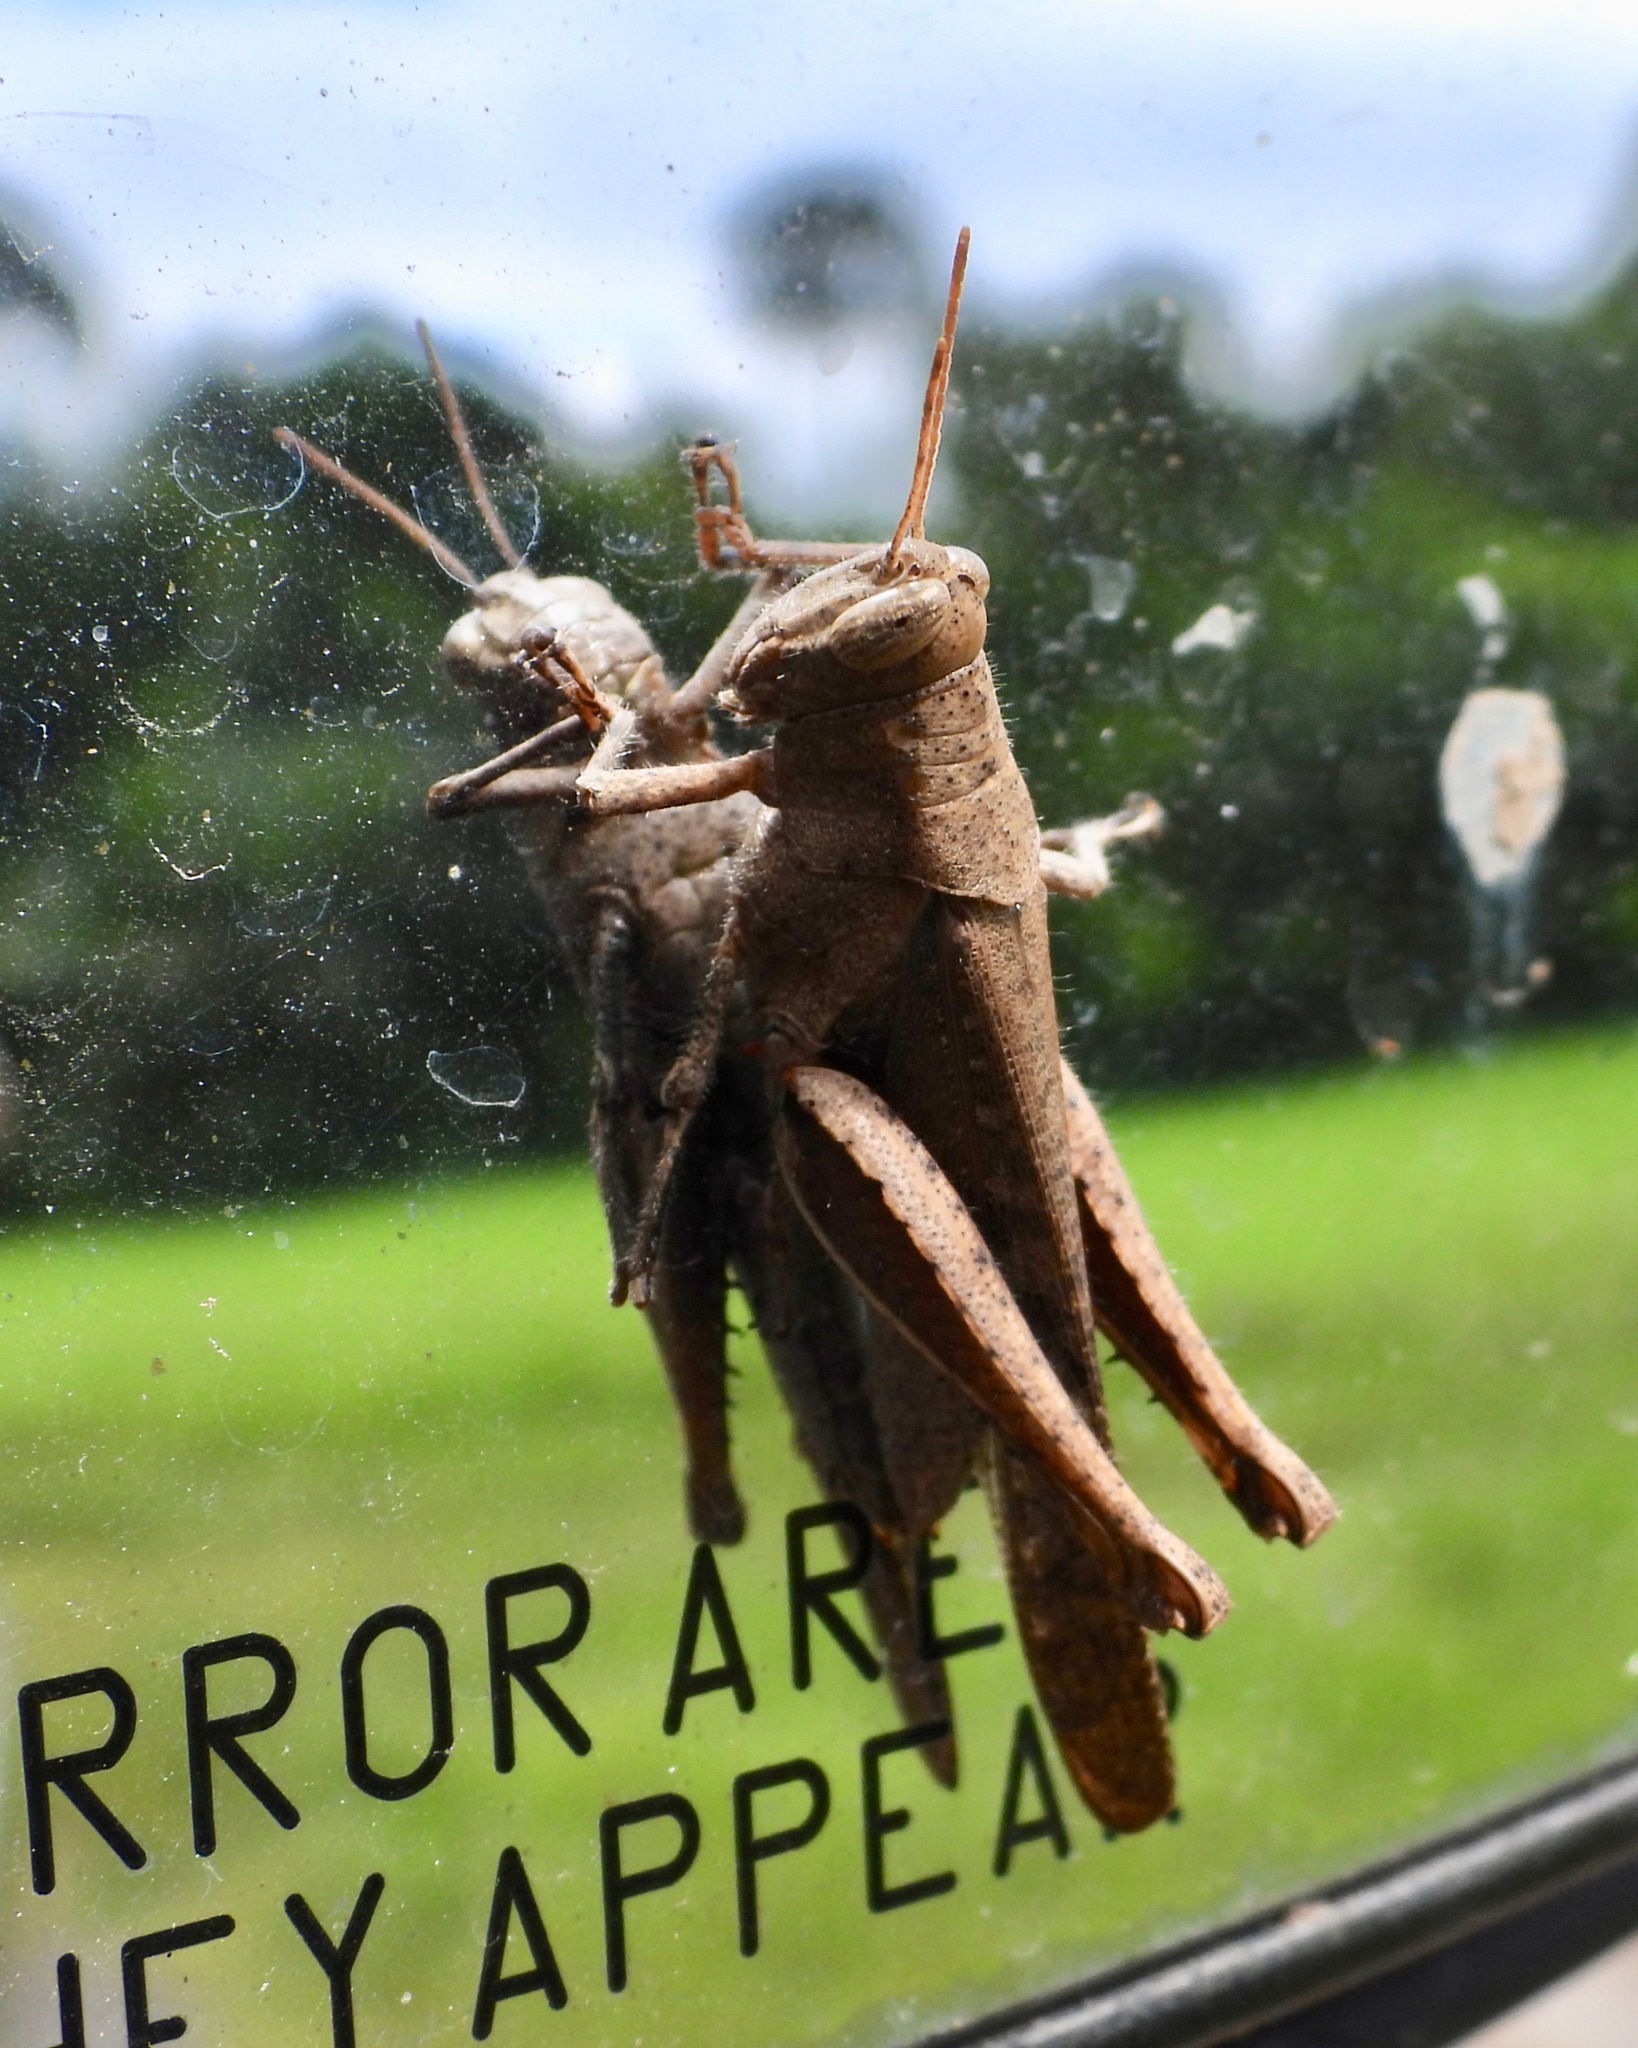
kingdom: Animalia
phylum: Arthropoda
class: Insecta
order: Orthoptera
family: Acrididae
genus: Abracris
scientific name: Abracris flavolineata
